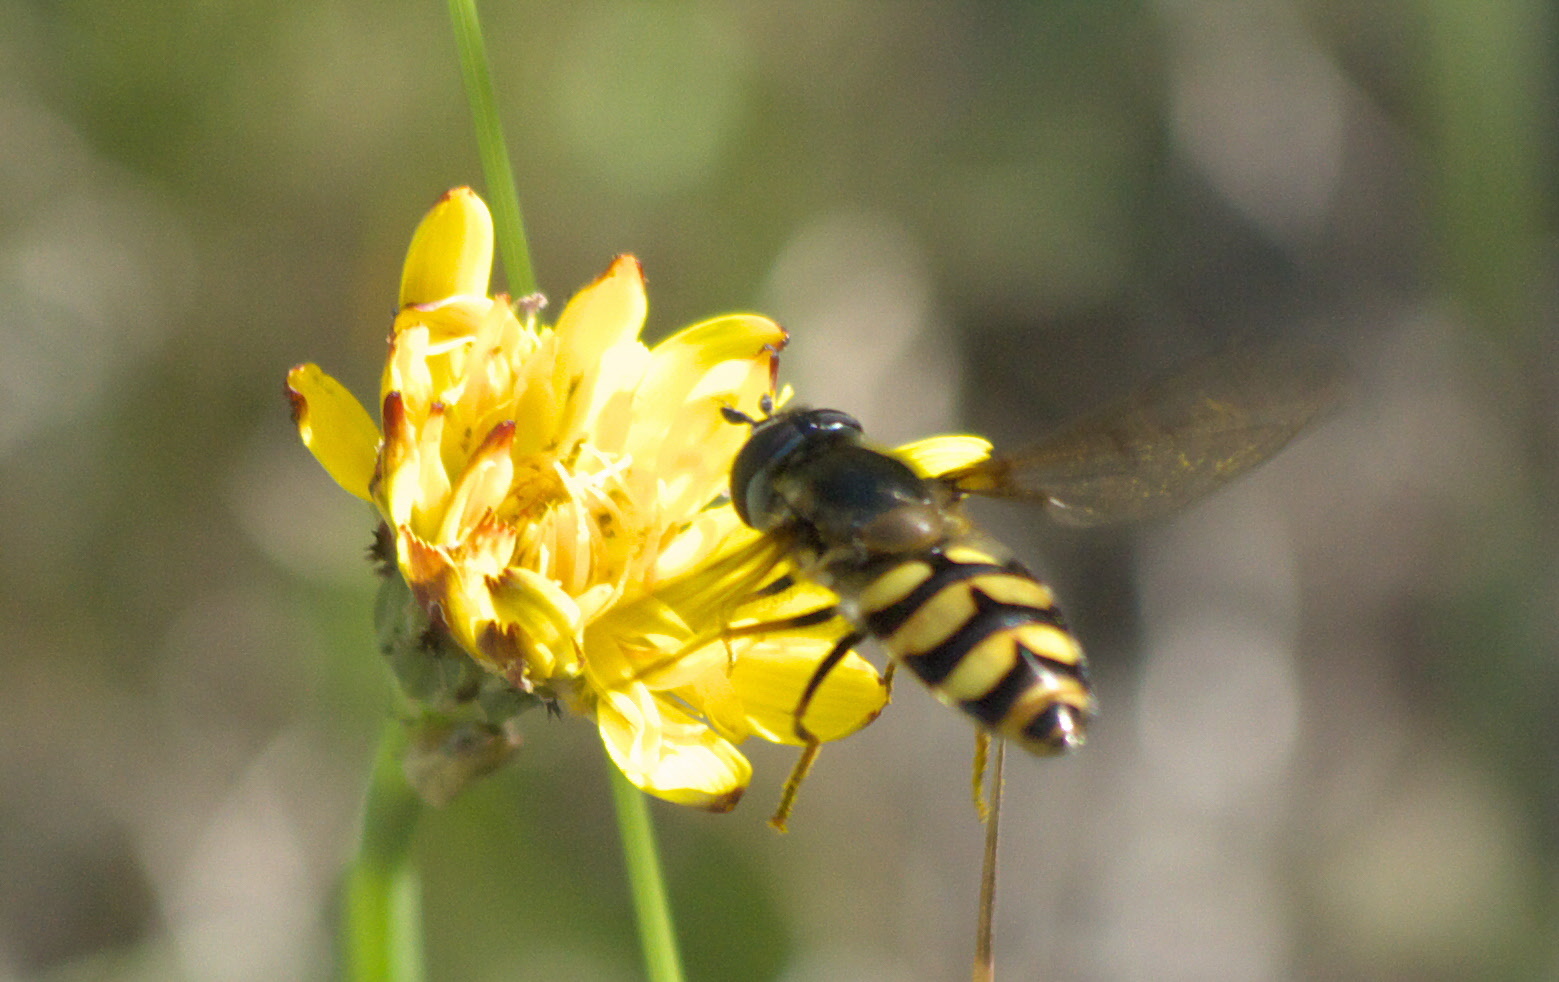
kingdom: Animalia
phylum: Arthropoda
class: Insecta
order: Diptera
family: Syrphidae
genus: Megasyrphus
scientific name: Megasyrphus laxus
